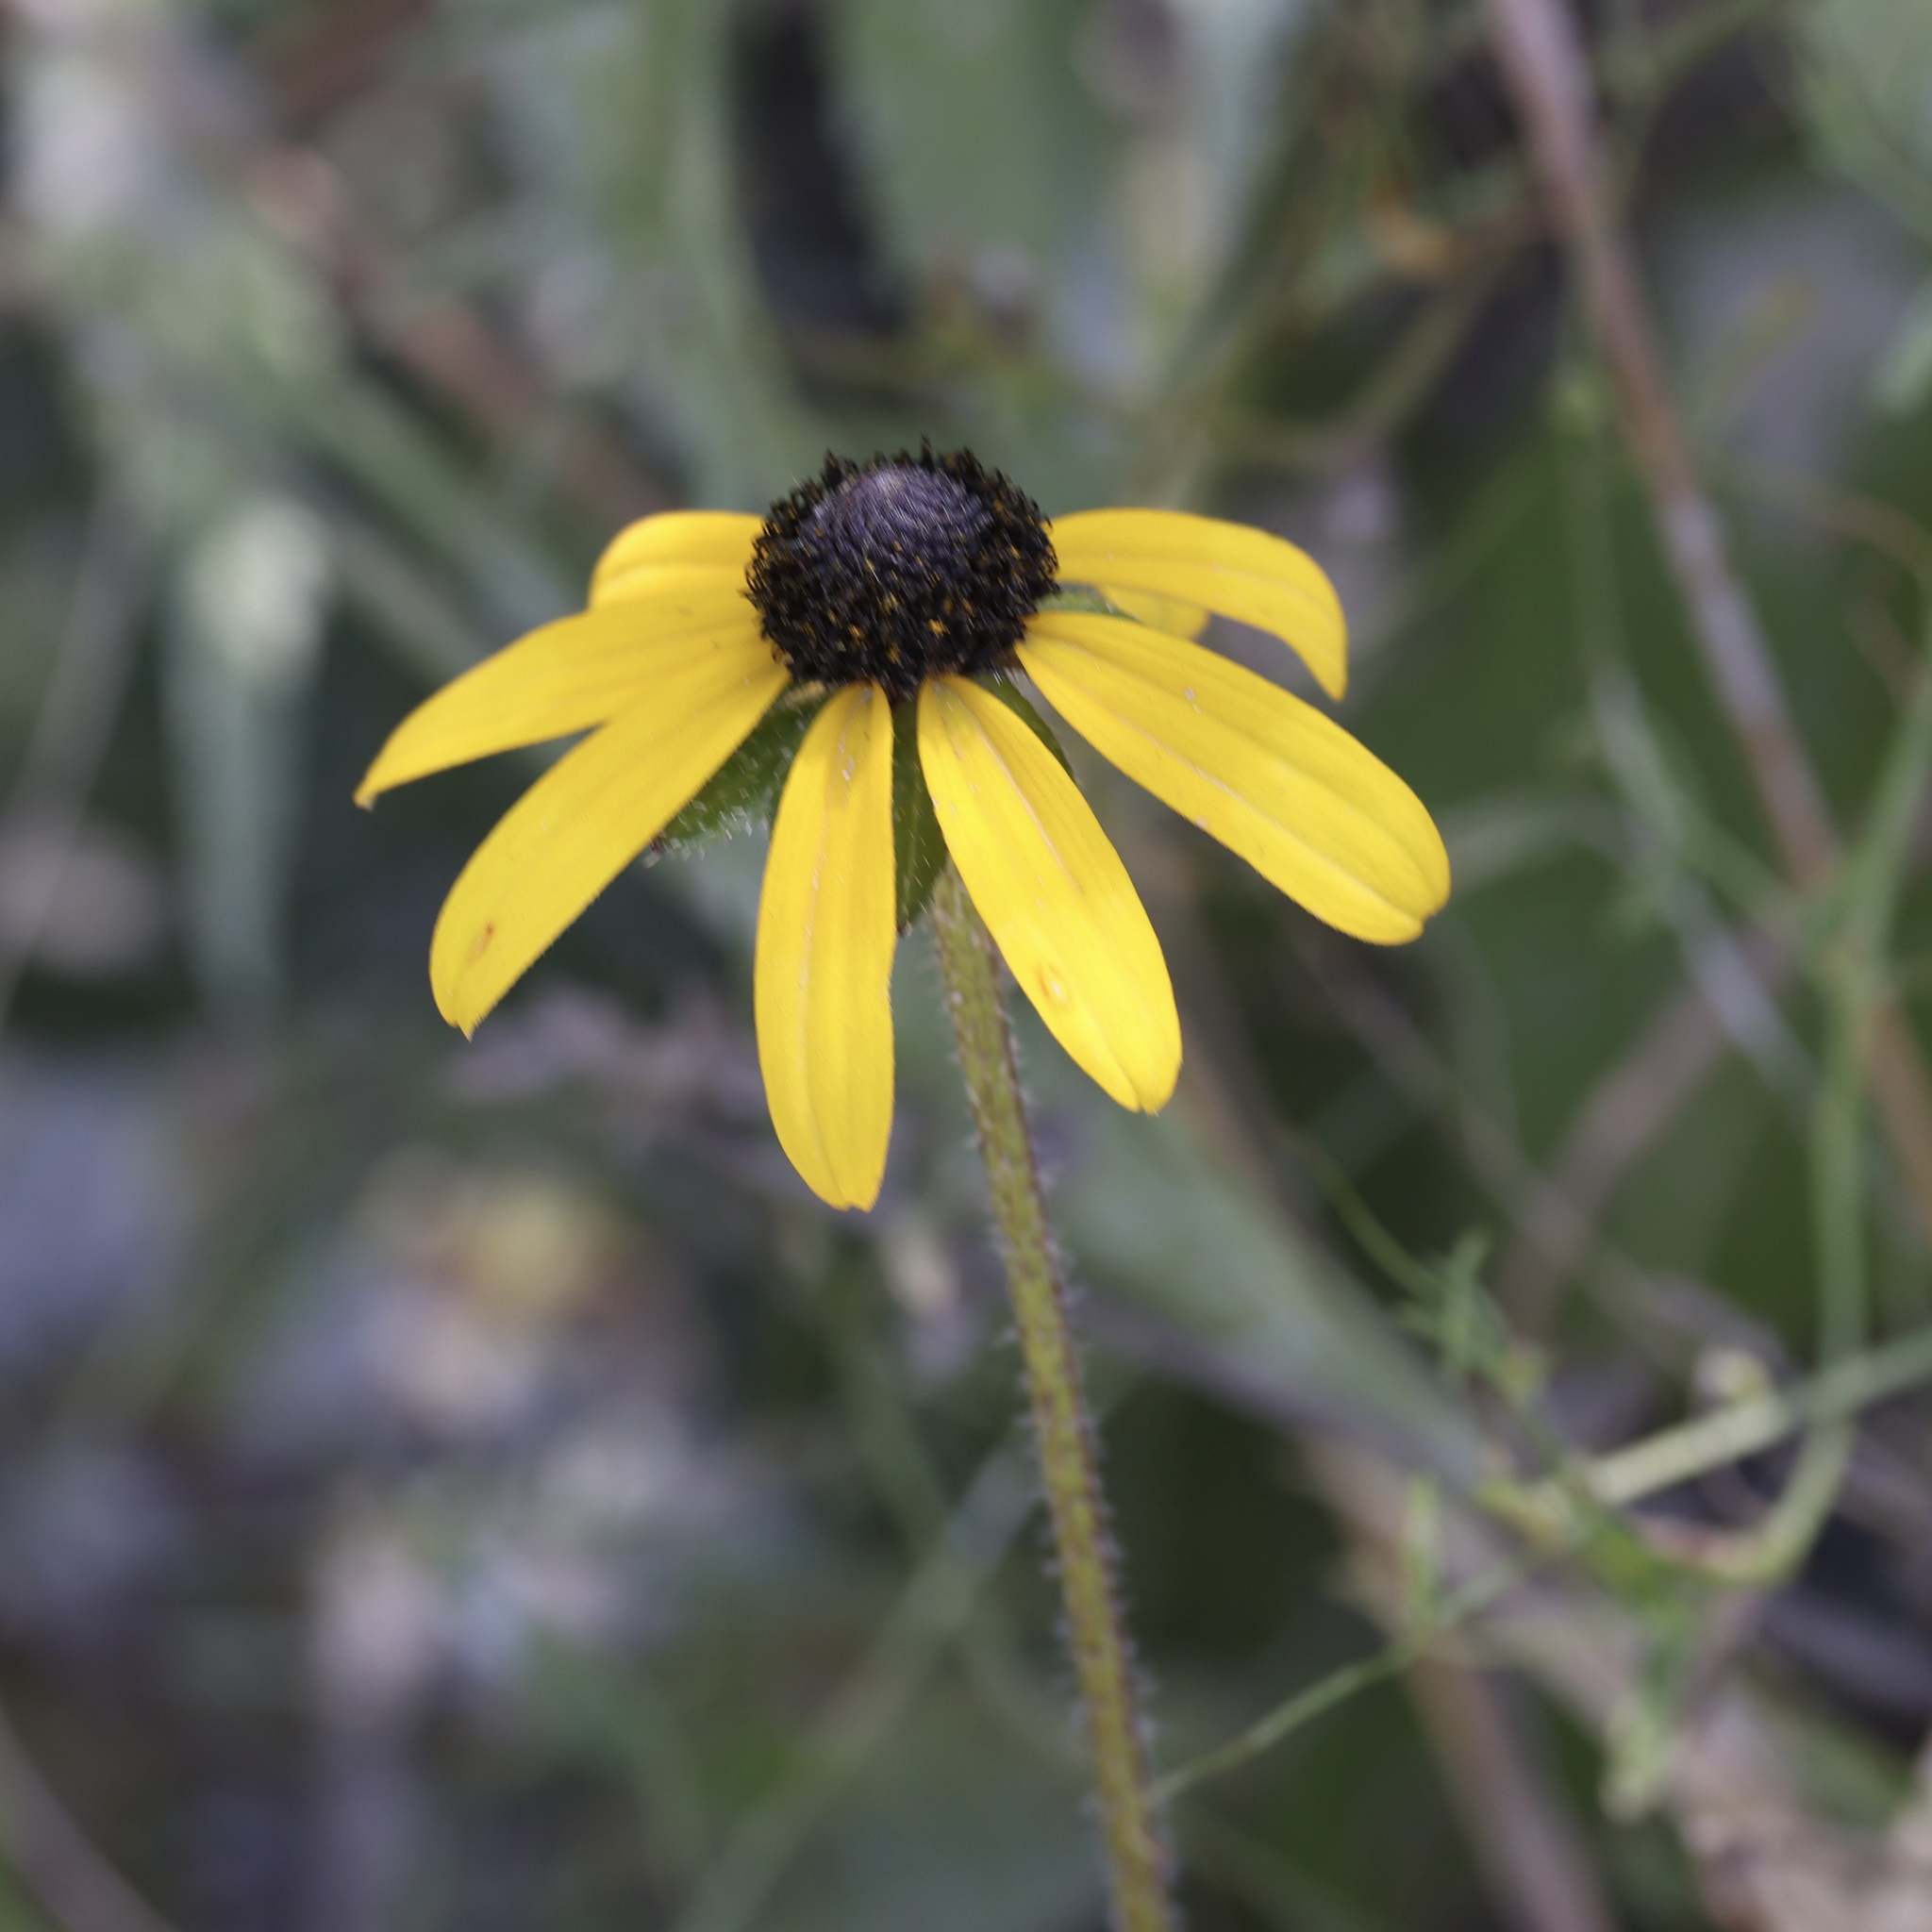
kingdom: Plantae
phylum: Tracheophyta
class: Magnoliopsida
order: Asterales
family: Asteraceae
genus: Rudbeckia
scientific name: Rudbeckia hirta
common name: Black-eyed-susan
